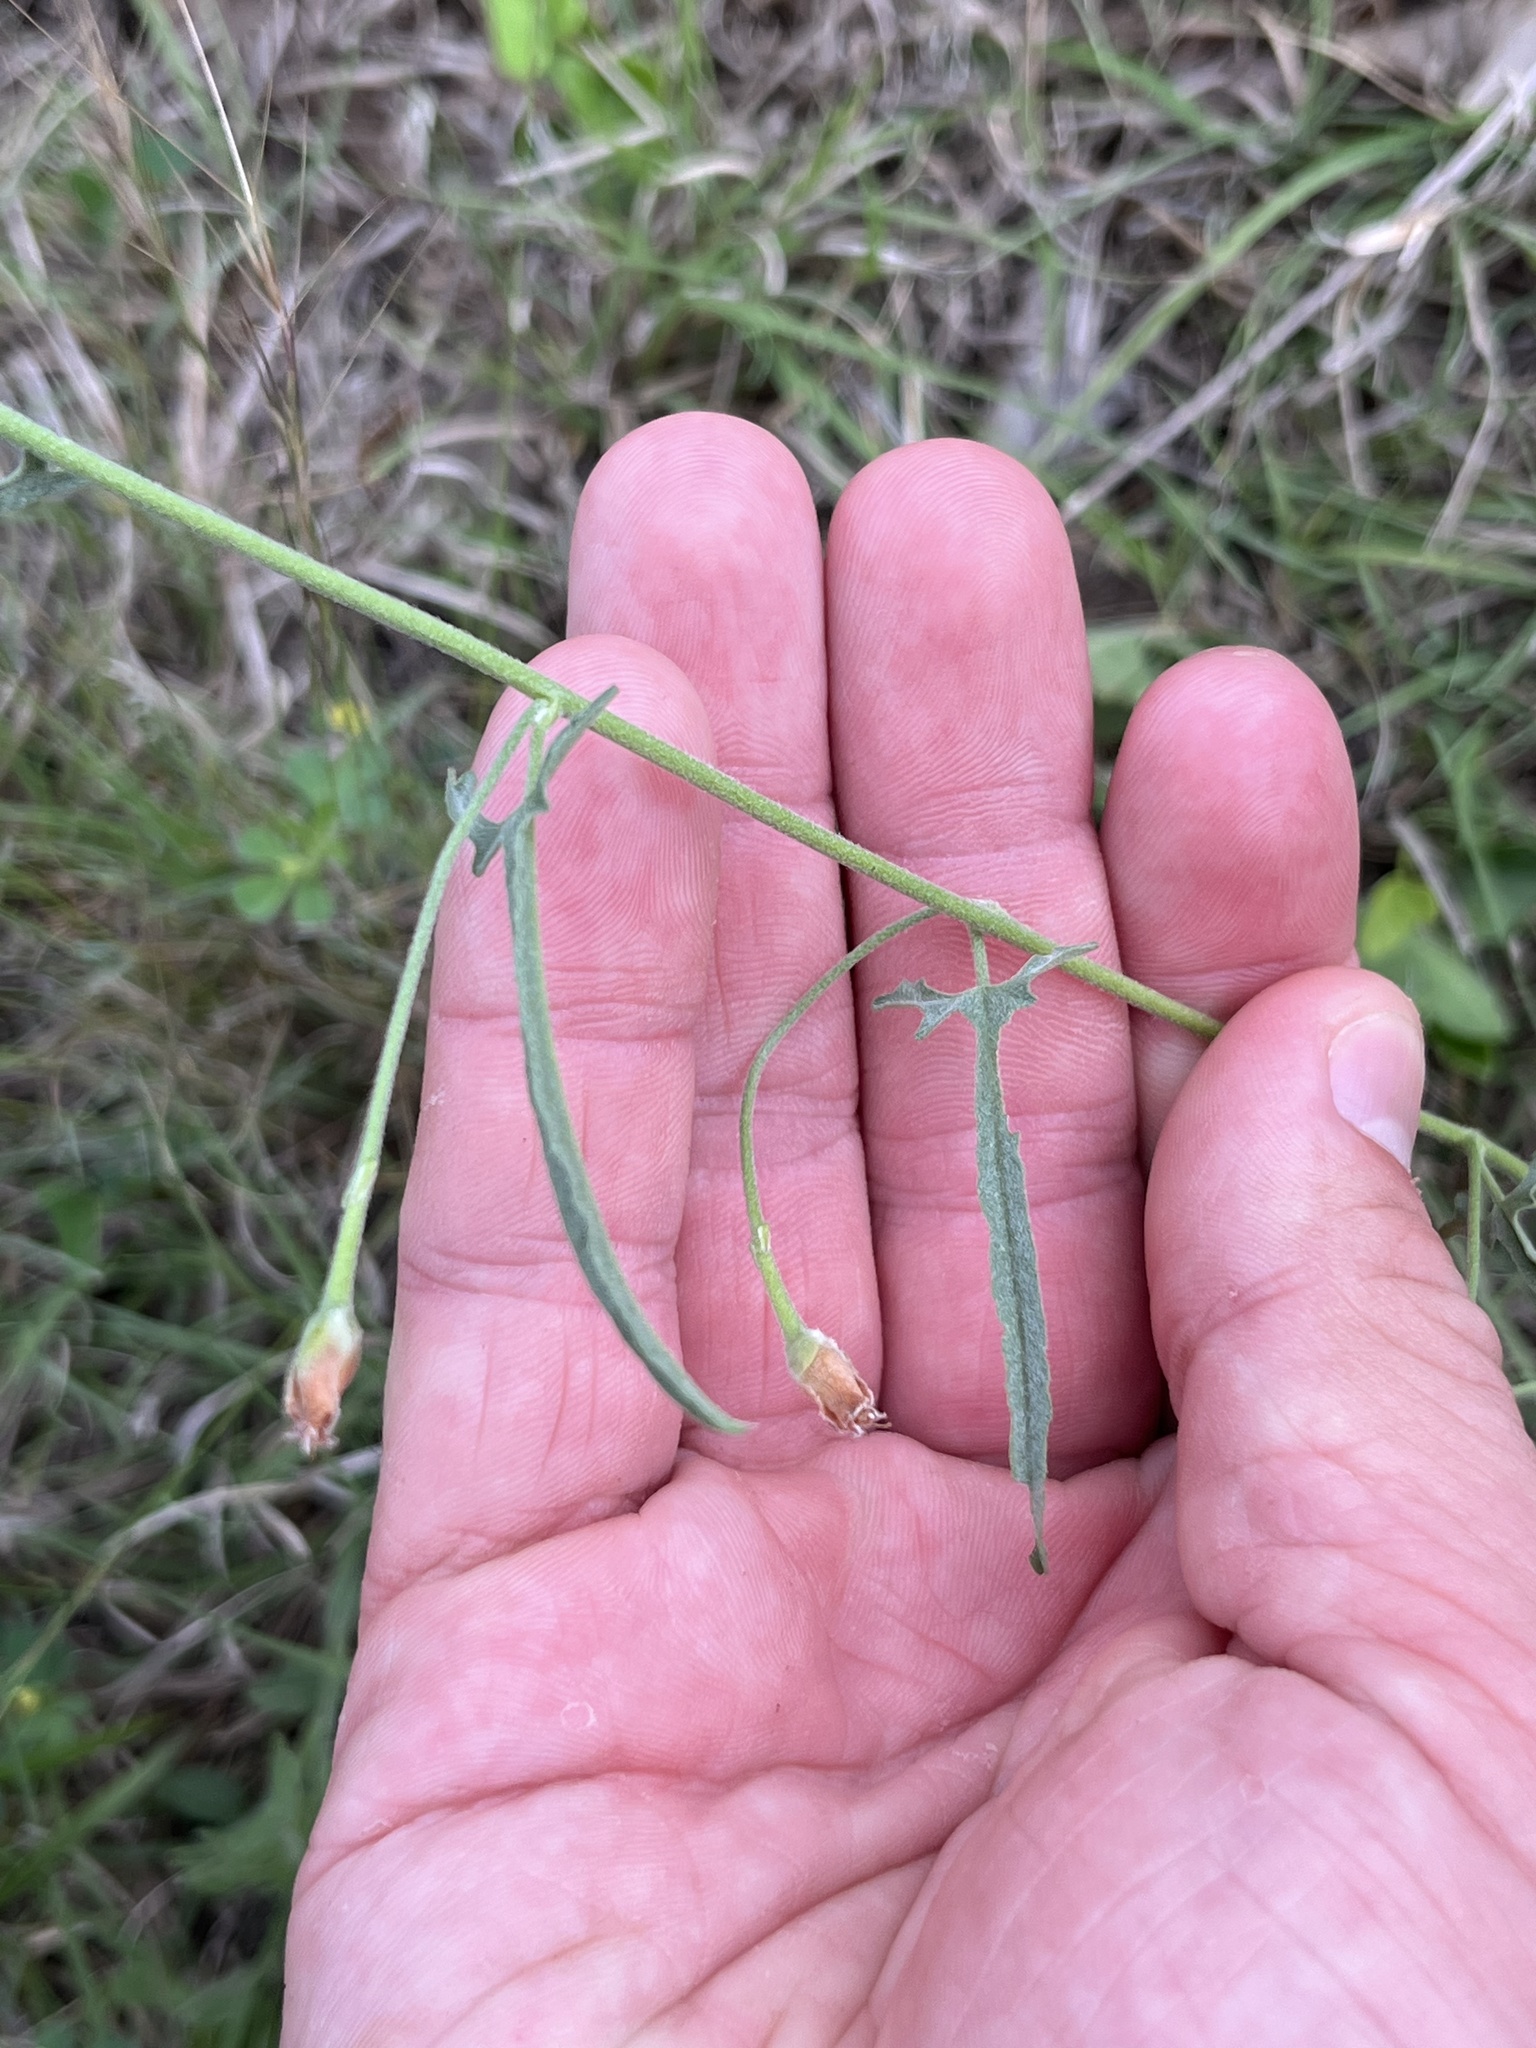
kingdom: Plantae
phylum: Tracheophyta
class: Magnoliopsida
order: Solanales
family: Convolvulaceae
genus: Convolvulus
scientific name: Convolvulus equitans
